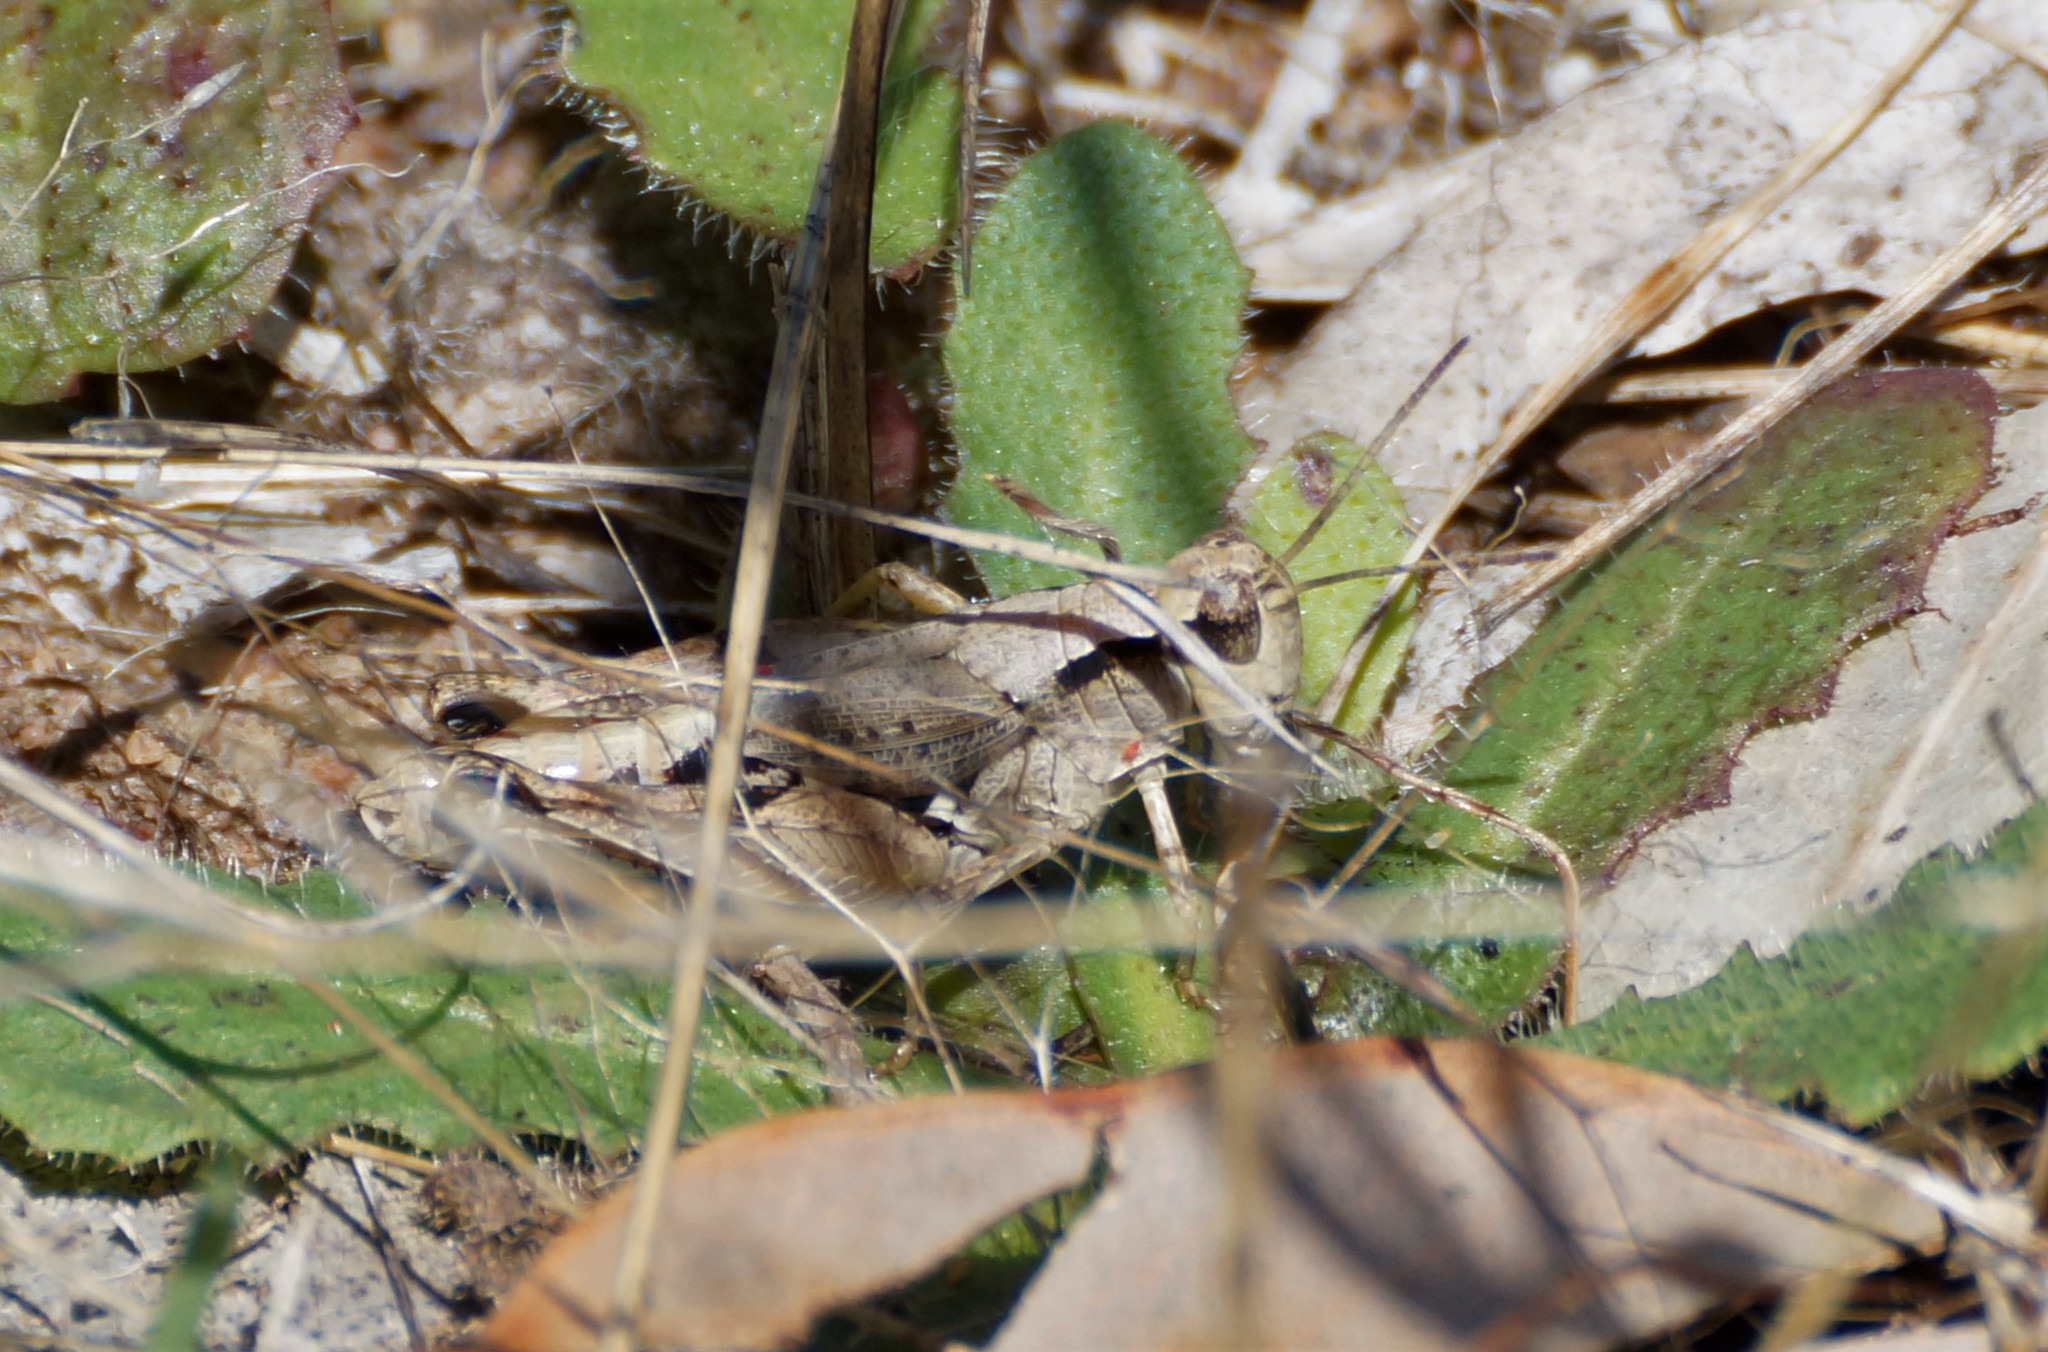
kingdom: Animalia
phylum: Arthropoda
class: Insecta
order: Orthoptera
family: Acrididae
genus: Phaulacridium
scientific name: Phaulacridium vittatum
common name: Wingless grasshopper
